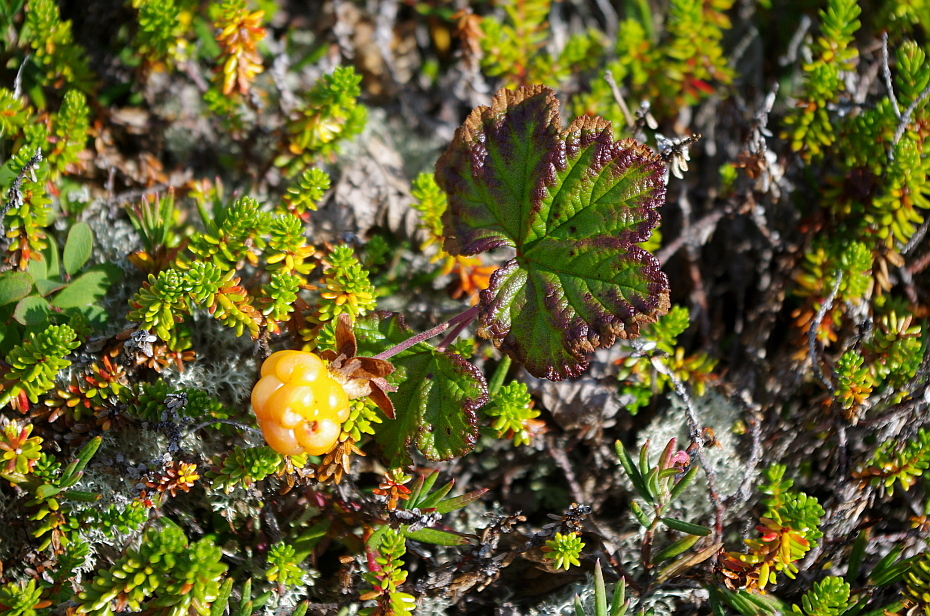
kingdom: Plantae
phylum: Tracheophyta
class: Magnoliopsida
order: Rosales
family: Rosaceae
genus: Rubus
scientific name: Rubus chamaemorus
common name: Cloudberry
